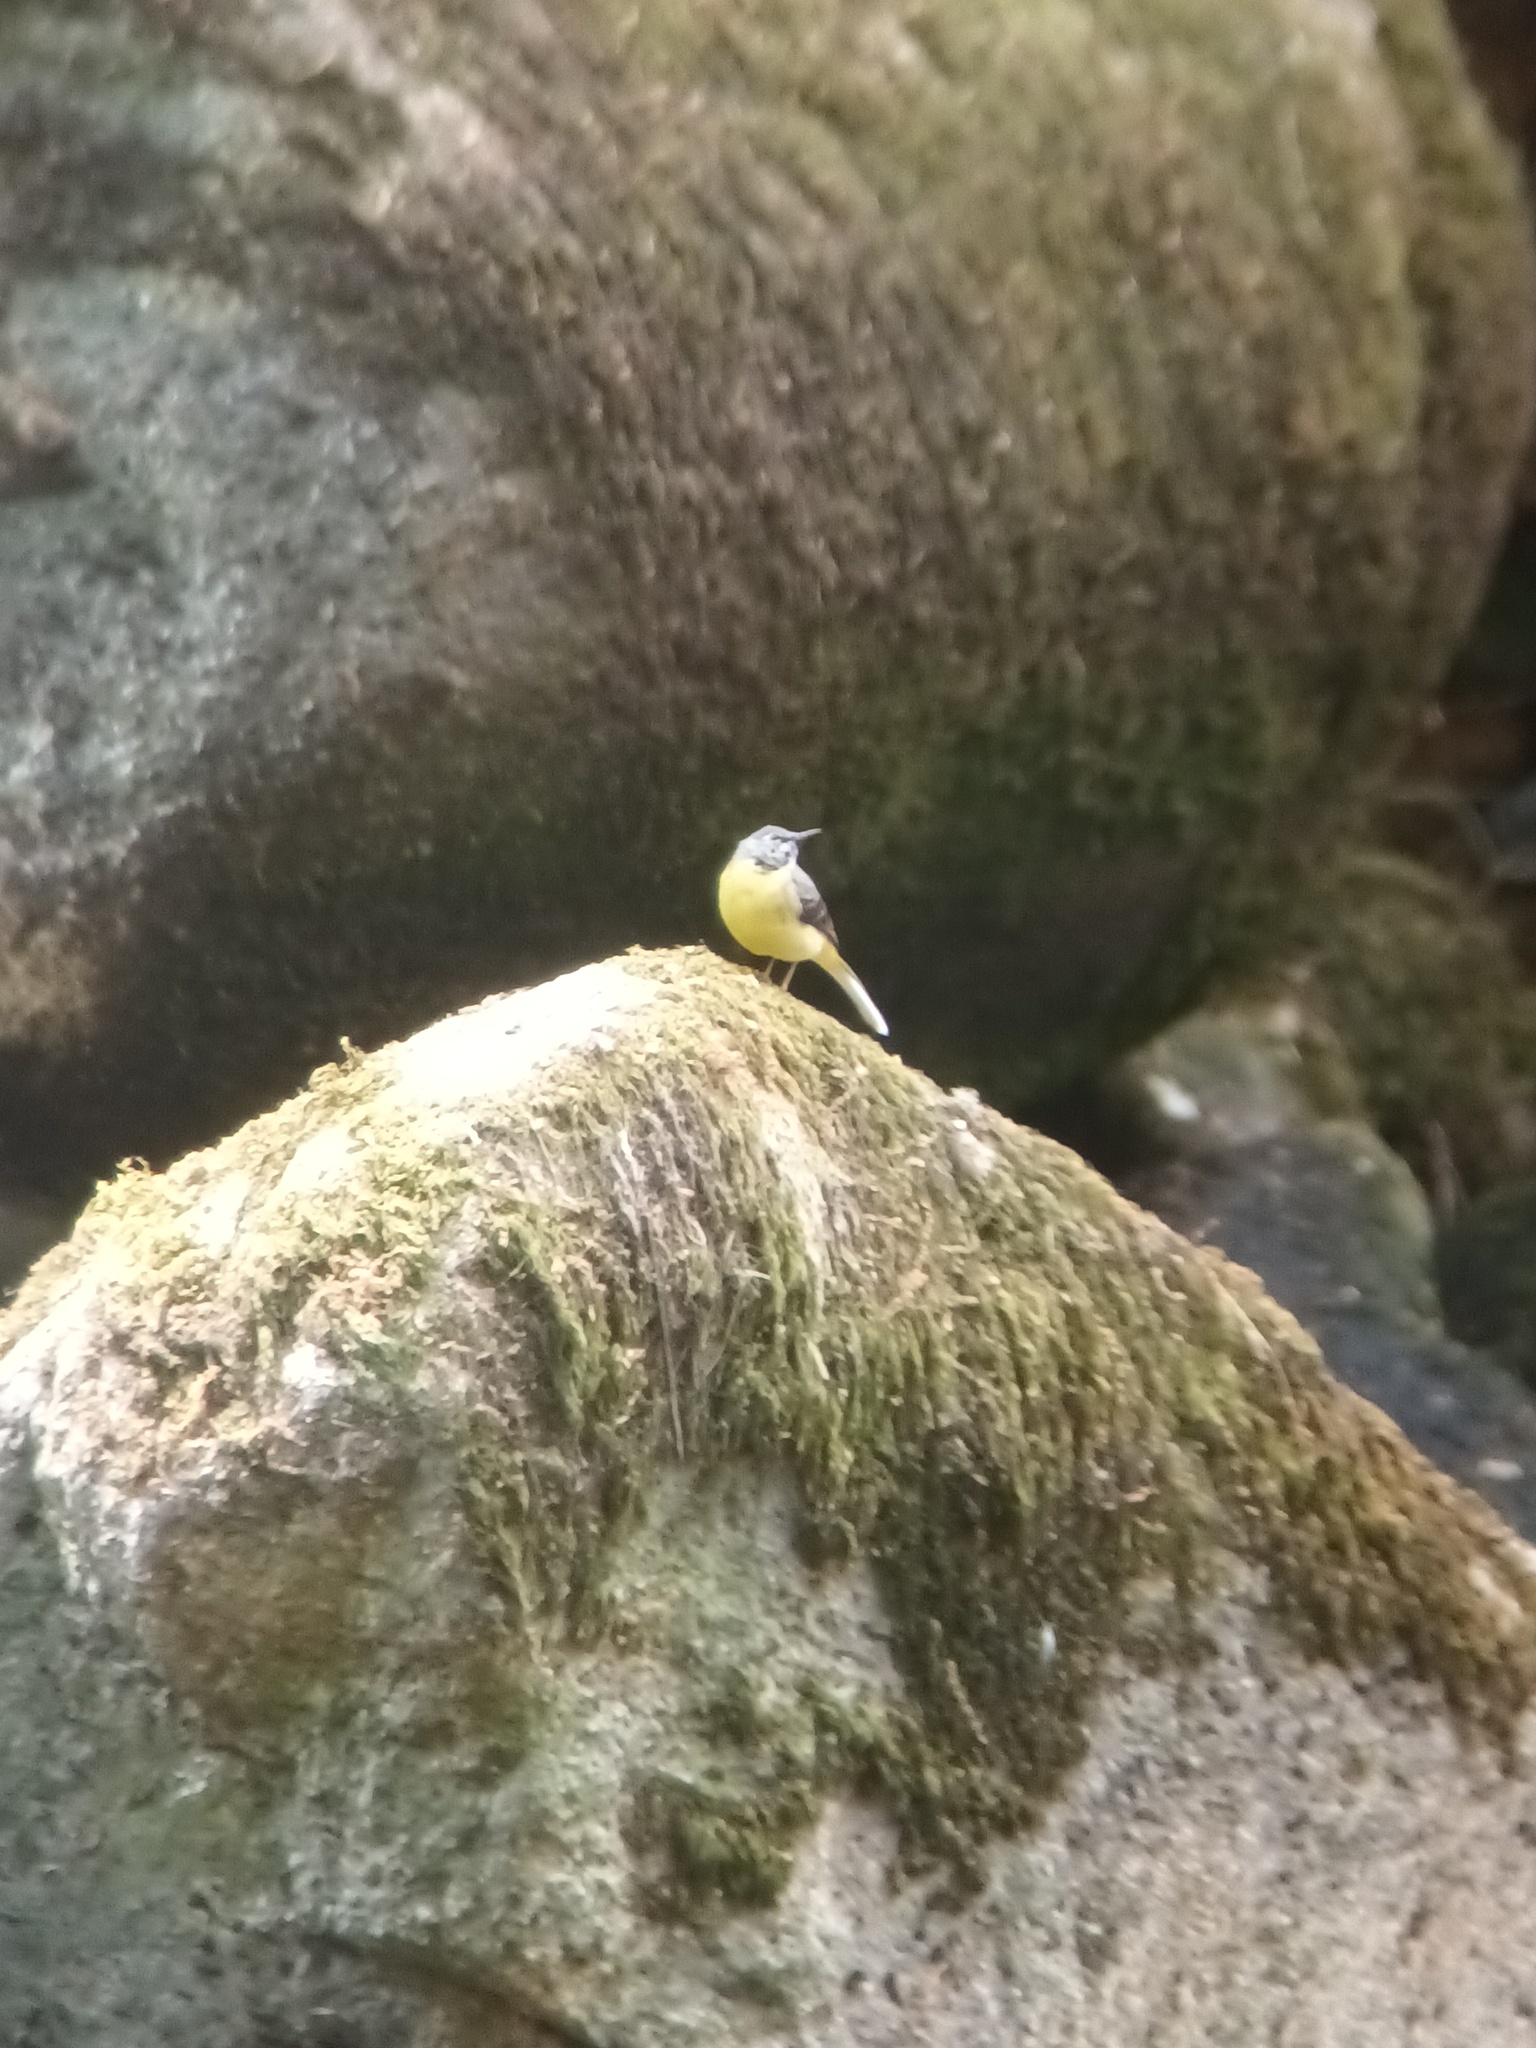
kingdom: Animalia
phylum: Chordata
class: Aves
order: Passeriformes
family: Motacillidae
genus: Motacilla
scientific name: Motacilla cinerea
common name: Grey wagtail
